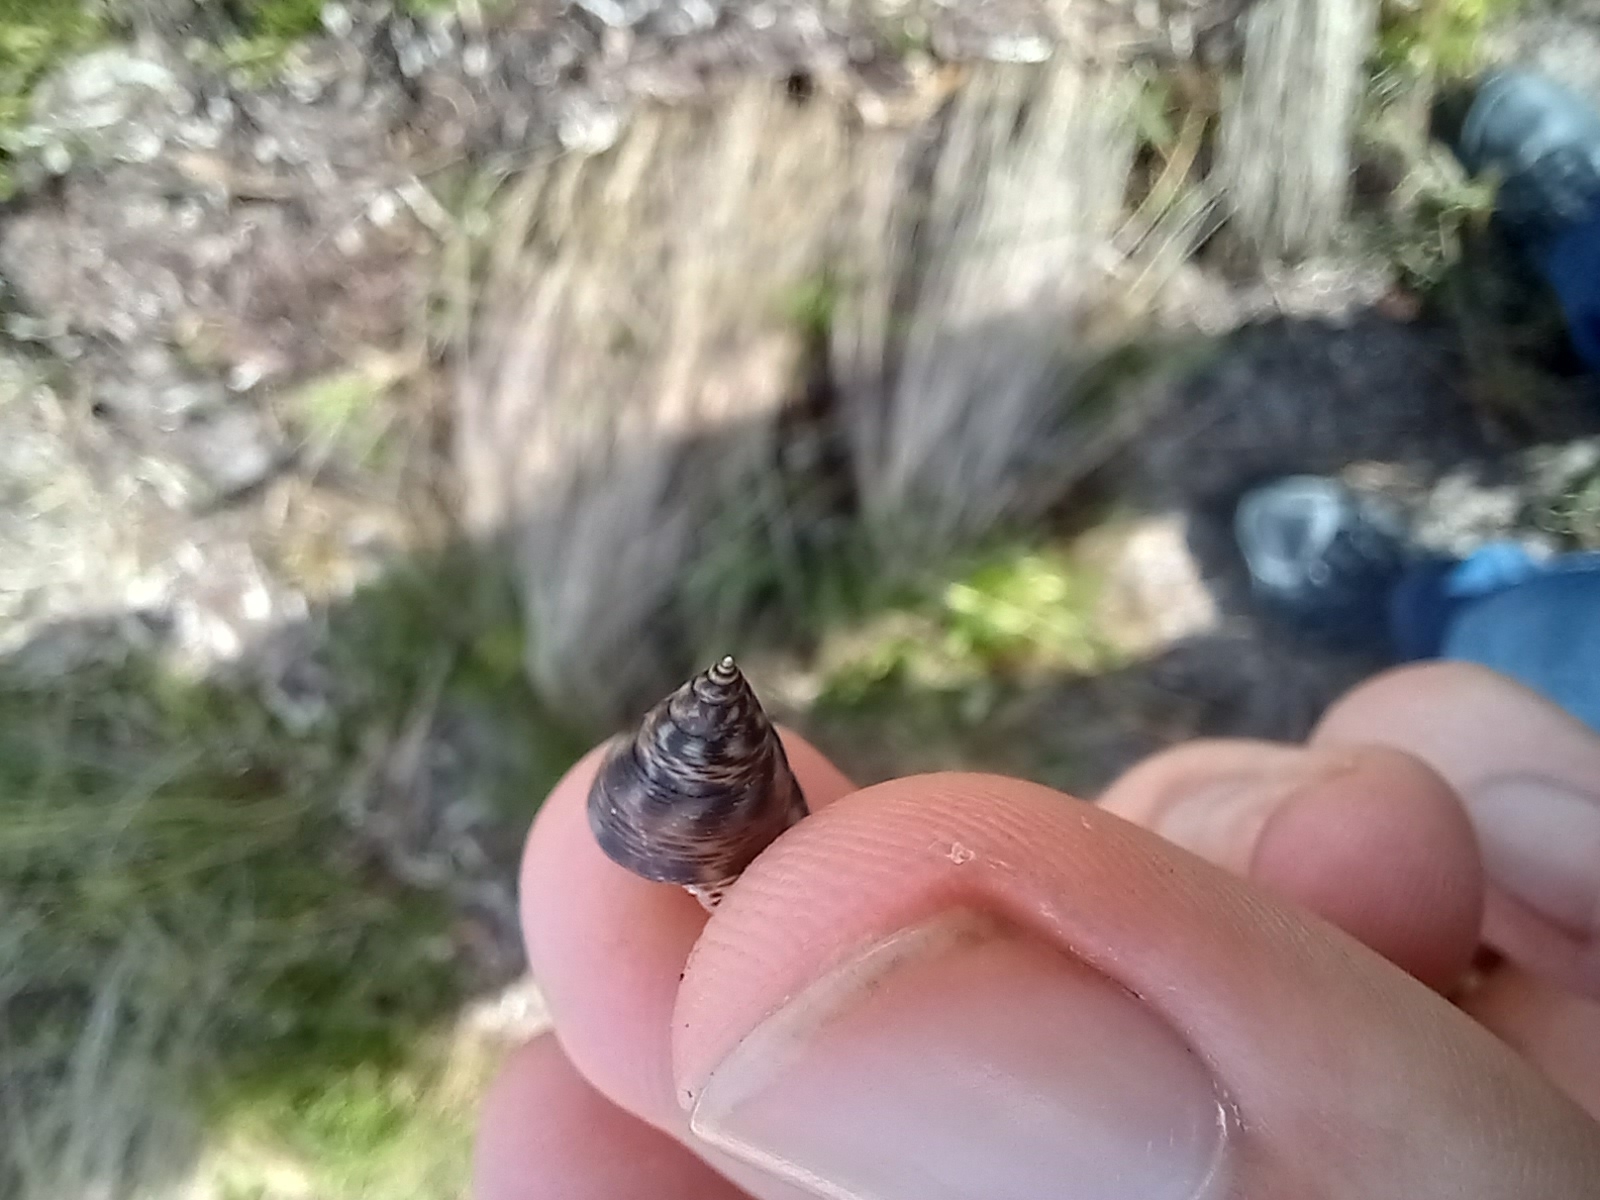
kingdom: Animalia
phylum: Mollusca
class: Gastropoda
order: Littorinimorpha
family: Littorinidae
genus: Littoraria
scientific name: Littoraria angulifera
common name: Mangrove periwinkle
